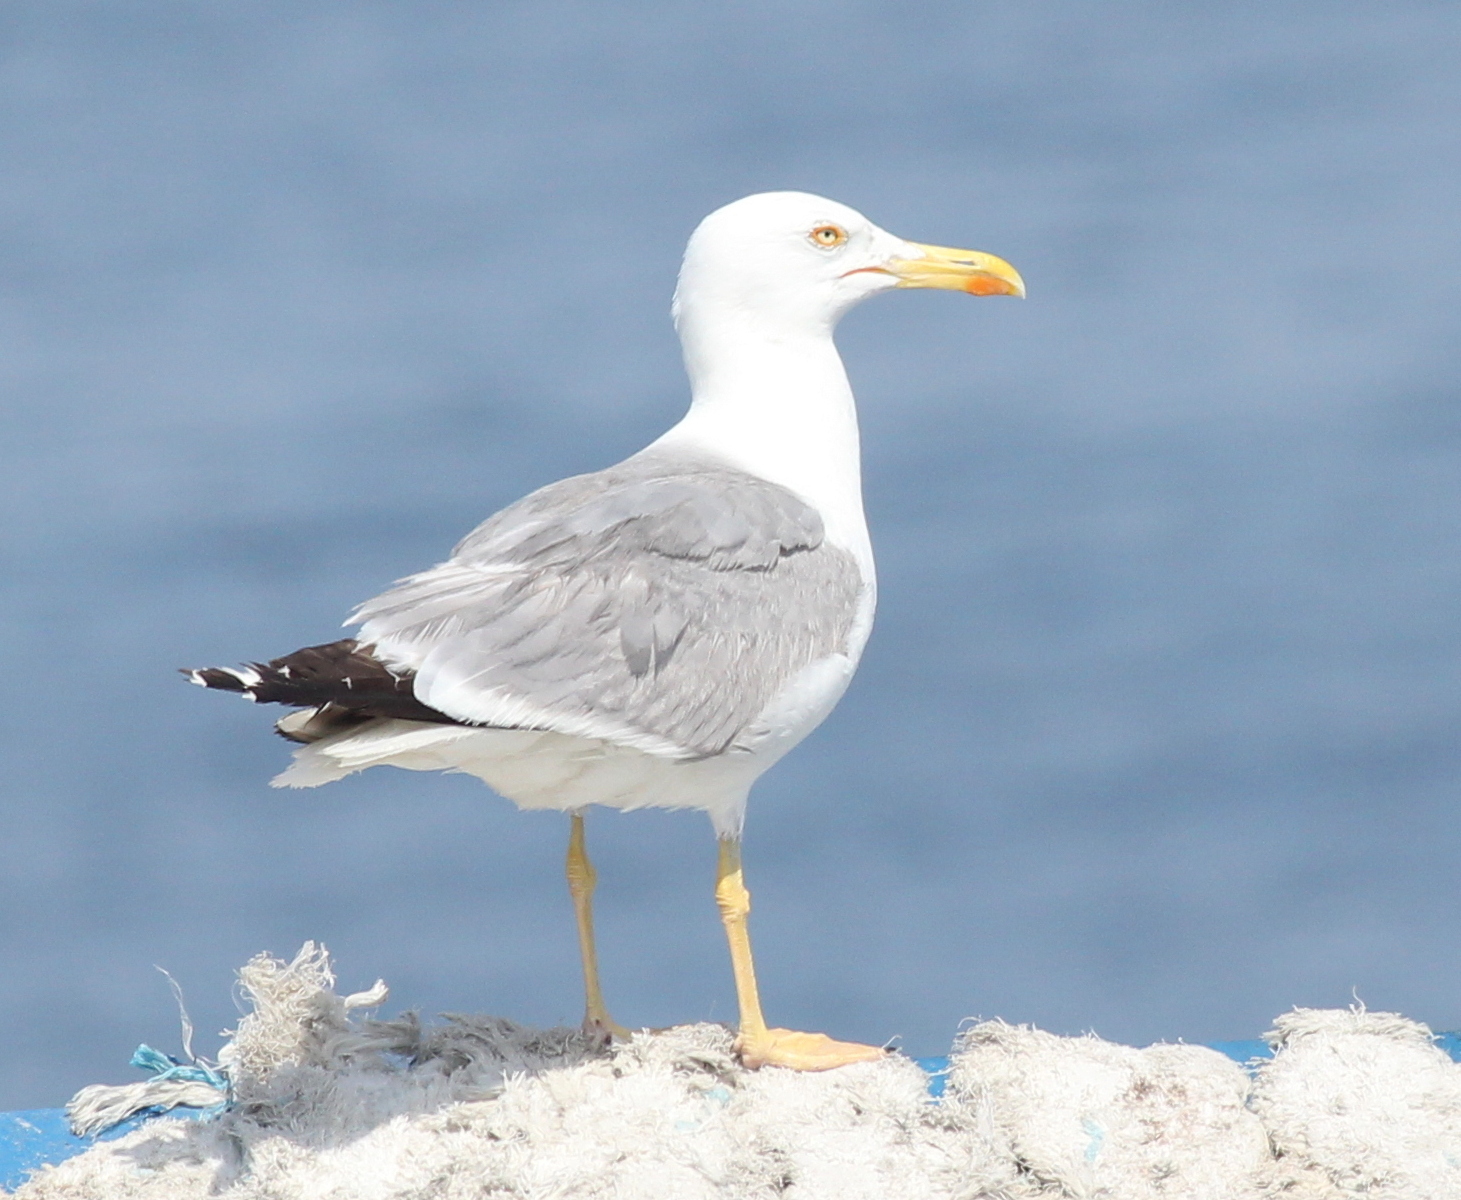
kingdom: Animalia
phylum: Chordata
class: Aves
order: Charadriiformes
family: Laridae
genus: Larus
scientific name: Larus michahellis
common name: Yellow-legged gull
